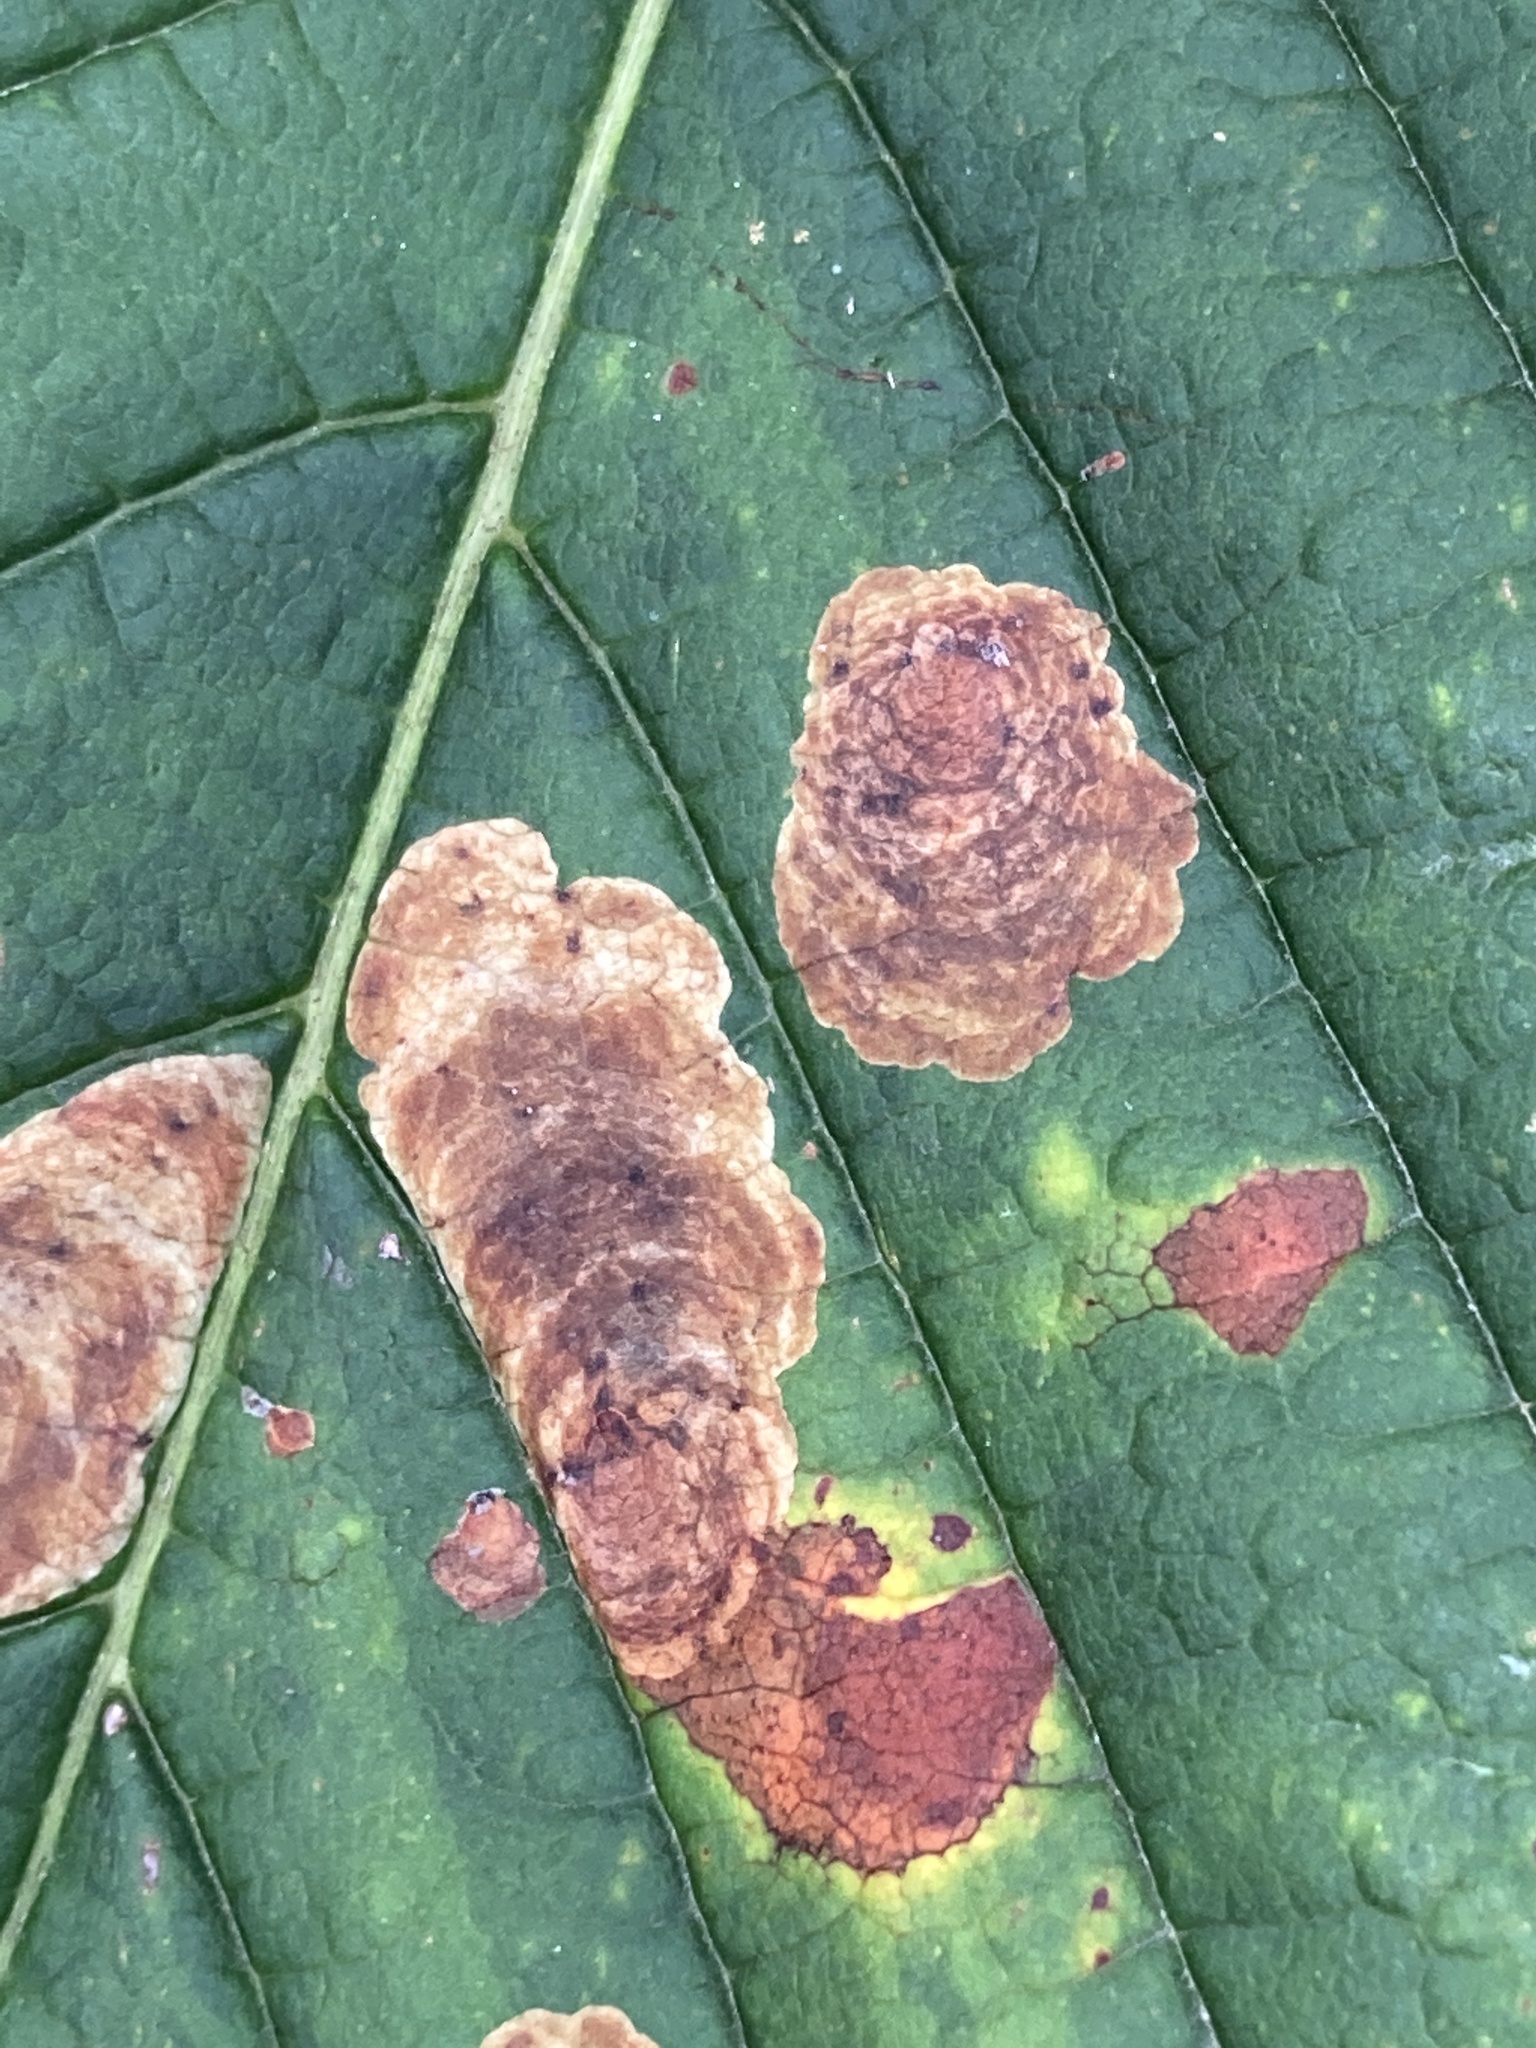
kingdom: Animalia
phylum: Arthropoda
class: Insecta
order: Lepidoptera
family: Gracillariidae
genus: Cameraria
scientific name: Cameraria ohridella
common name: Horse-chestnut leaf-miner
